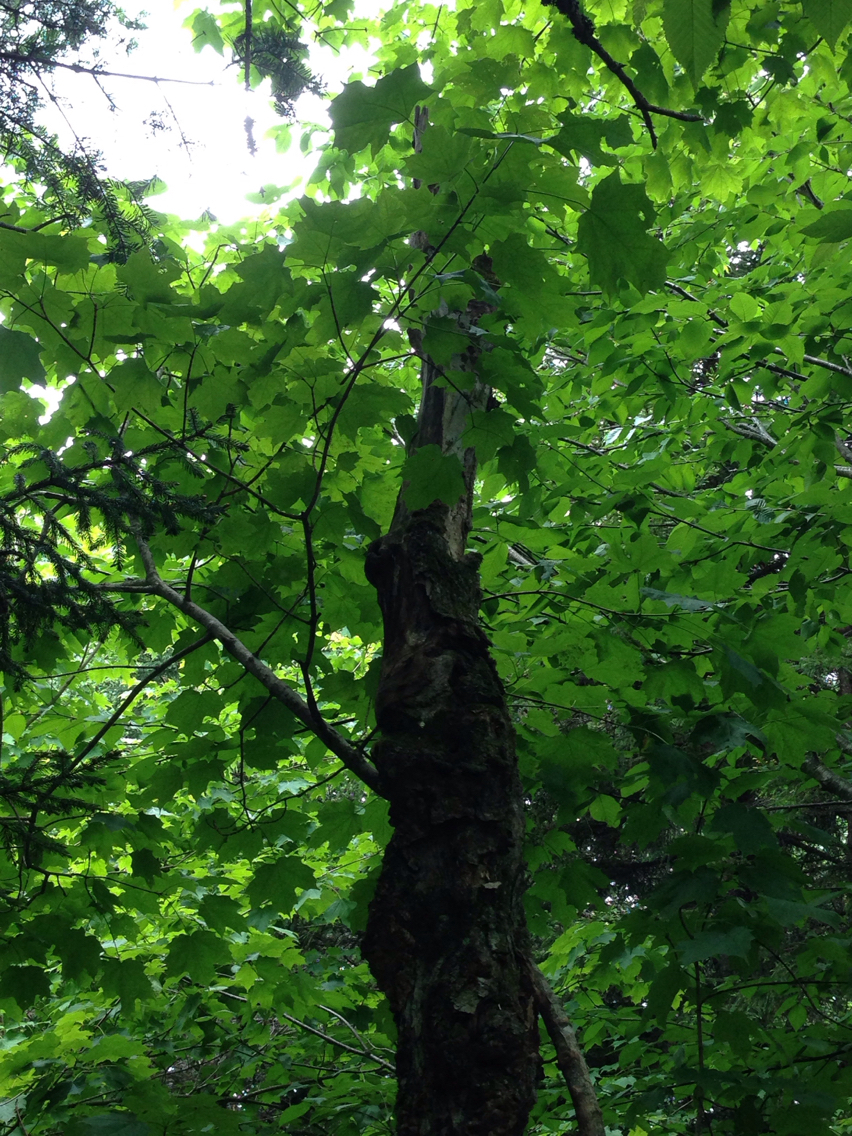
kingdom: Plantae
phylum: Tracheophyta
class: Magnoliopsida
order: Sapindales
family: Sapindaceae
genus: Acer
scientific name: Acer saccharum
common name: Sugar maple
